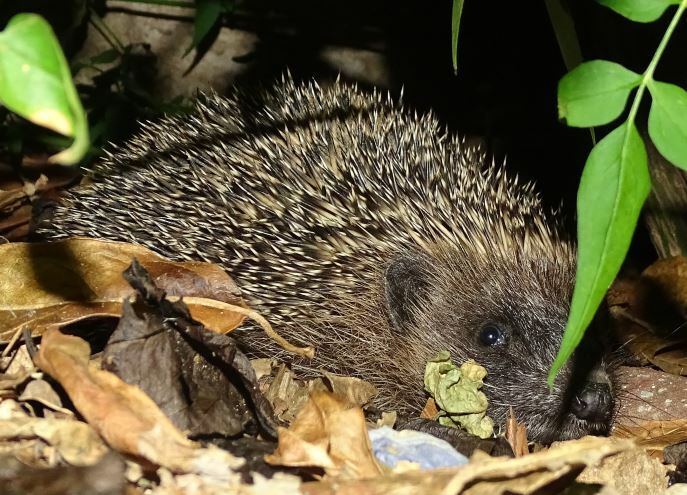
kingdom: Animalia
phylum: Chordata
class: Mammalia
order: Erinaceomorpha
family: Erinaceidae
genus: Erinaceus
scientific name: Erinaceus europaeus
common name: West european hedgehog
